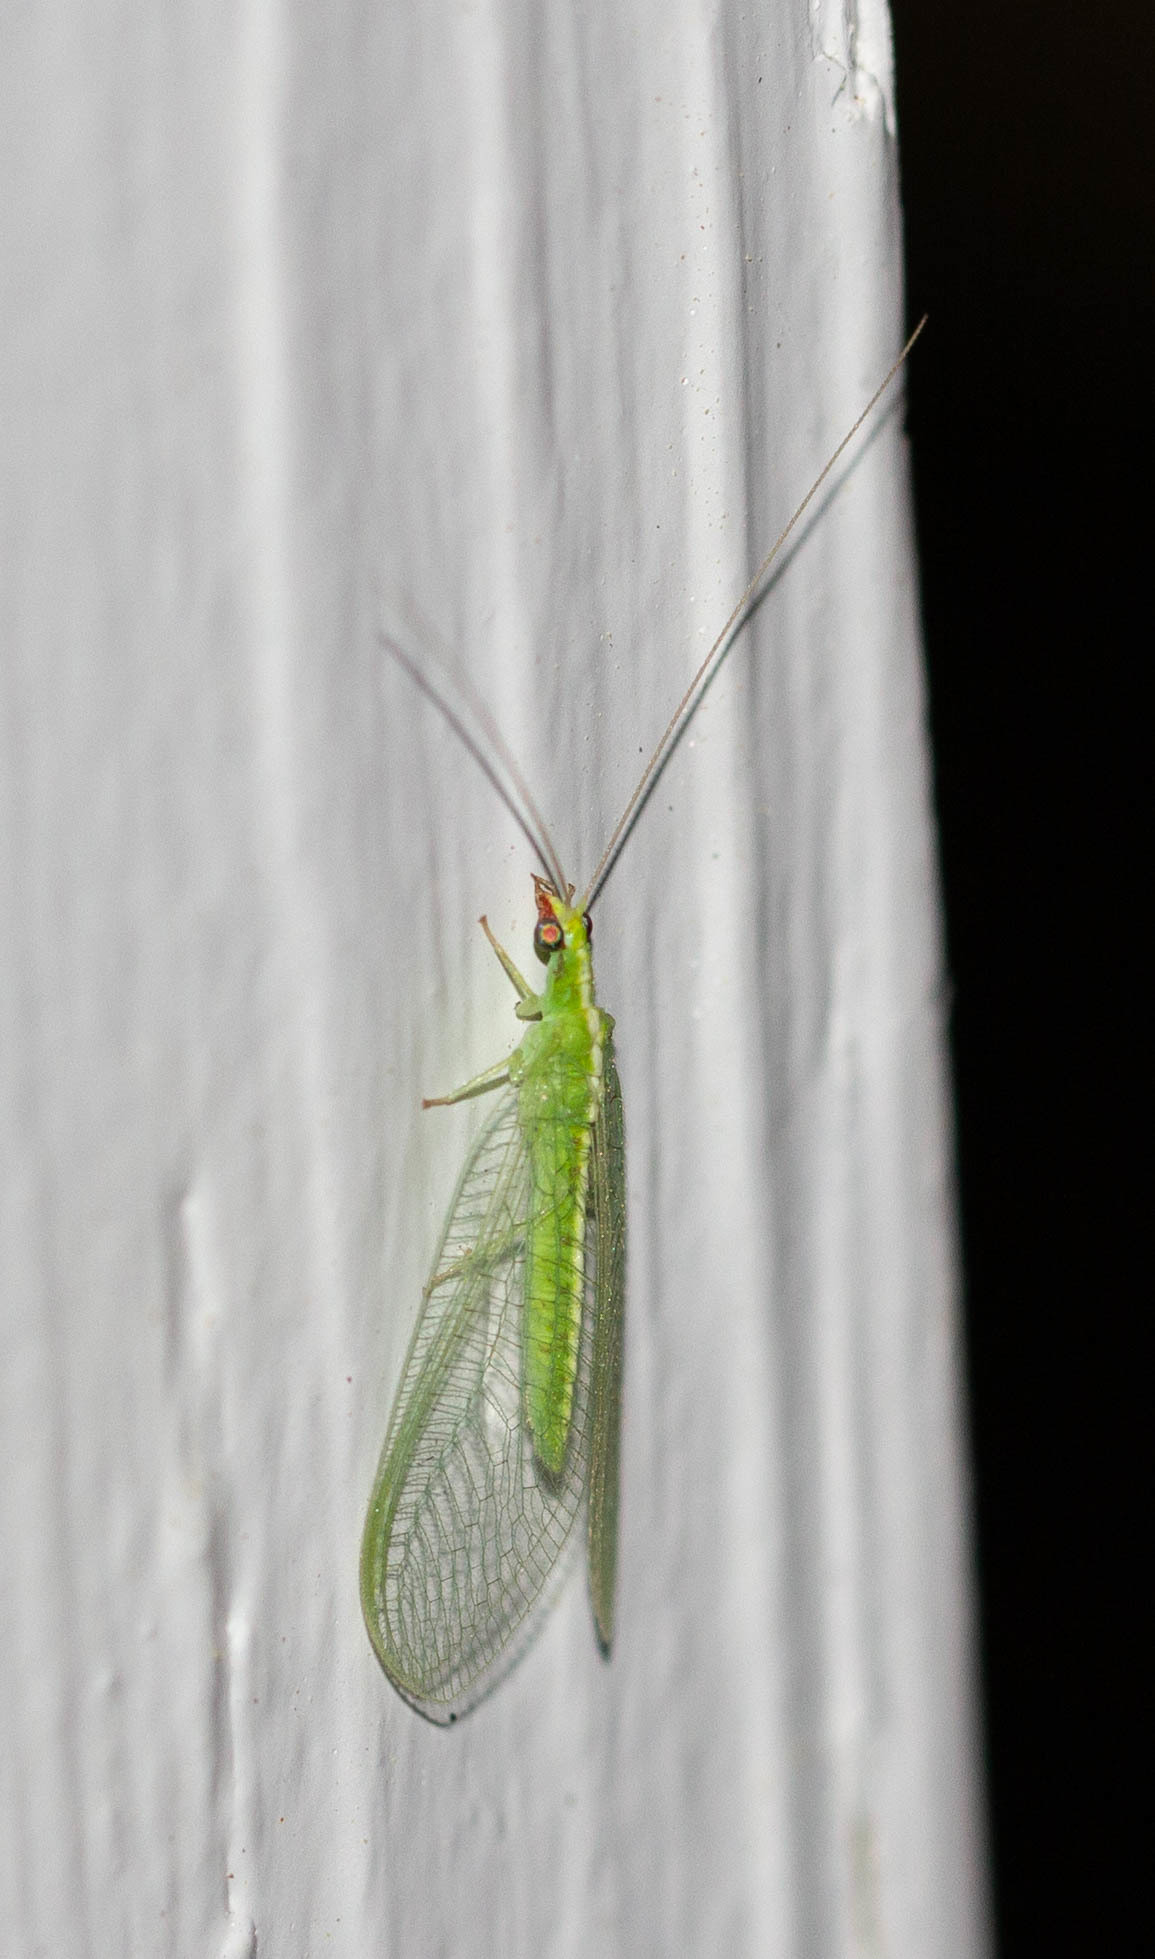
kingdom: Animalia
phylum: Arthropoda
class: Insecta
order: Neuroptera
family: Chrysopidae
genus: Chrysoperla
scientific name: Chrysoperla rufilabris
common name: Red-lipped green lacewing
